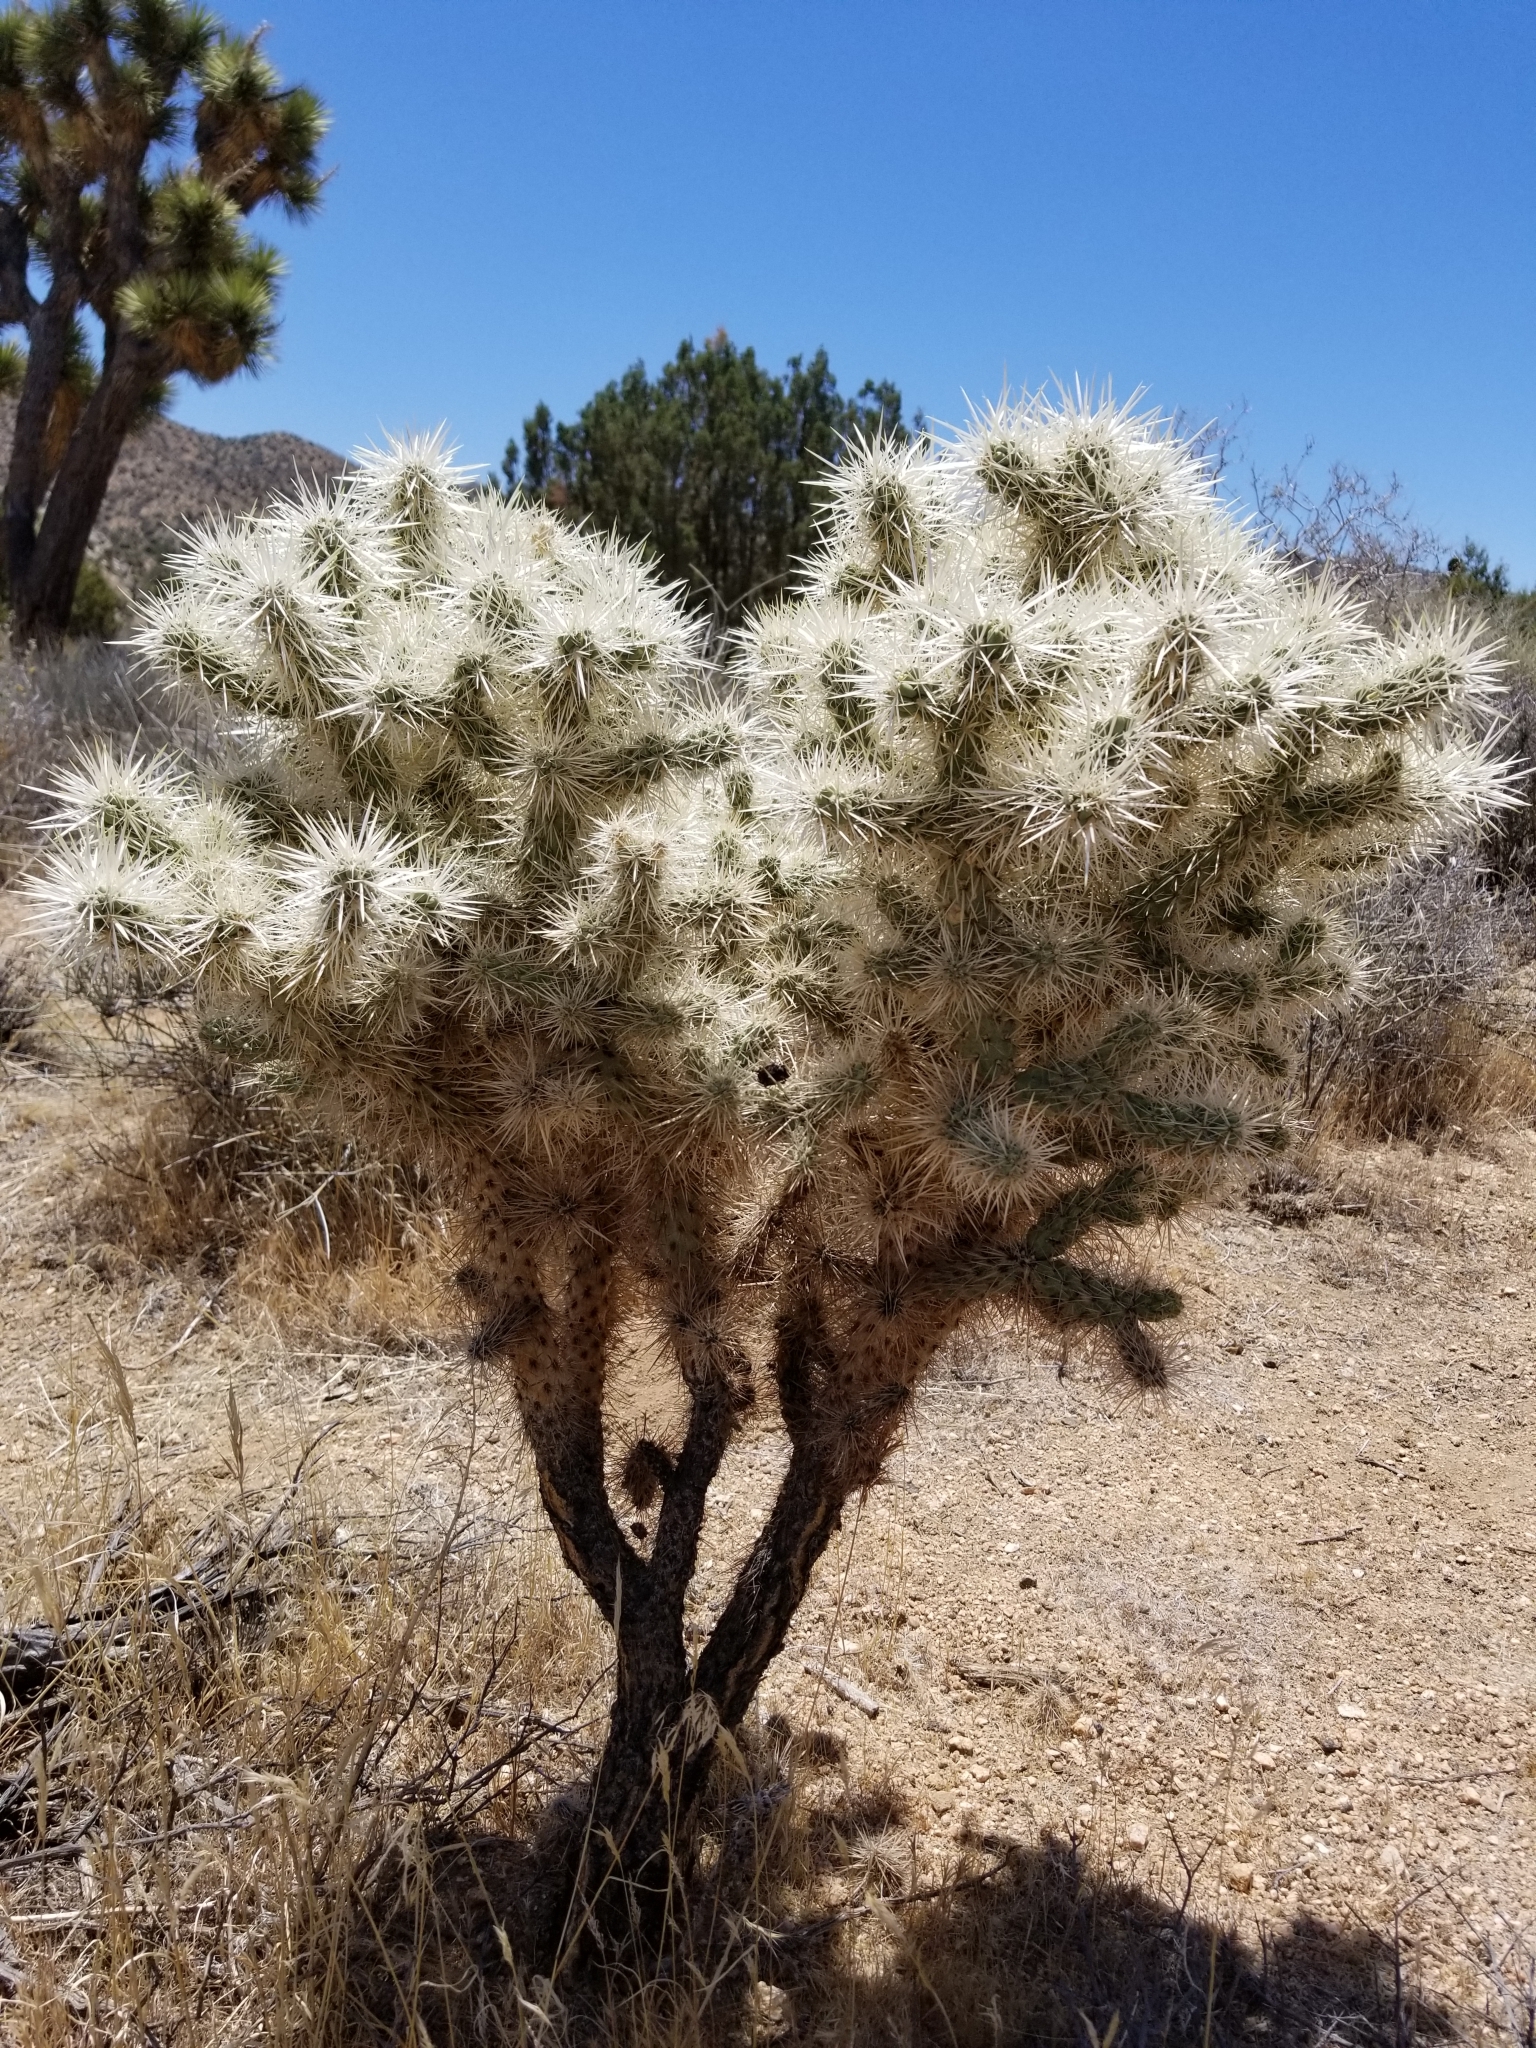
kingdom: Plantae
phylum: Tracheophyta
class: Magnoliopsida
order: Caryophyllales
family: Cactaceae
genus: Cylindropuntia
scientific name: Cylindropuntia echinocarpa
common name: Ground cholla
